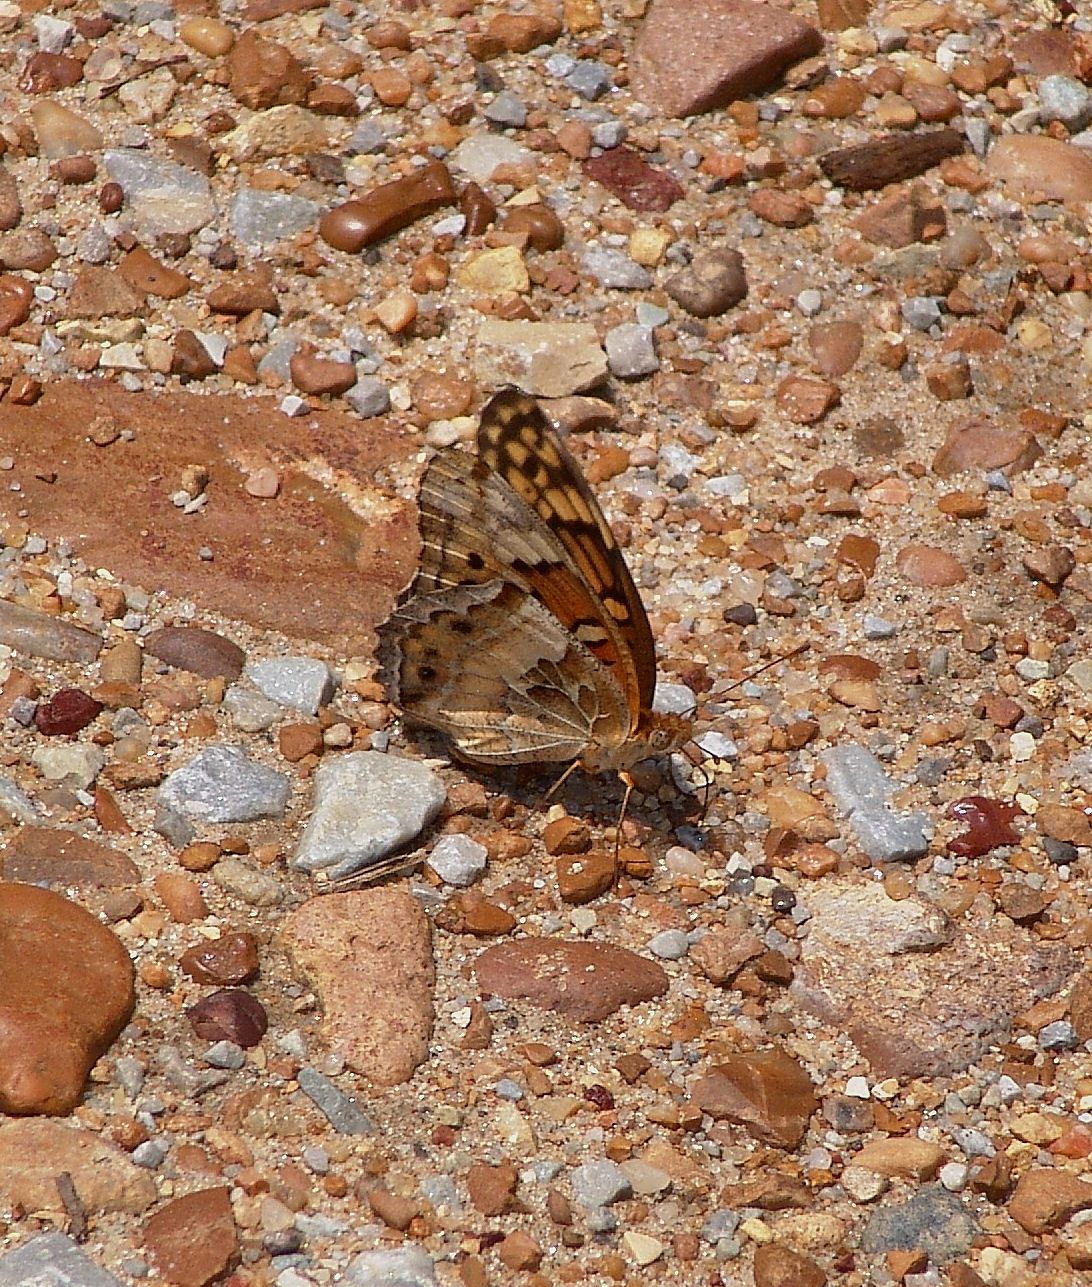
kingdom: Animalia
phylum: Arthropoda
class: Insecta
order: Lepidoptera
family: Nymphalidae
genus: Euptoieta
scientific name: Euptoieta claudia
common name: Variegated fritillary
